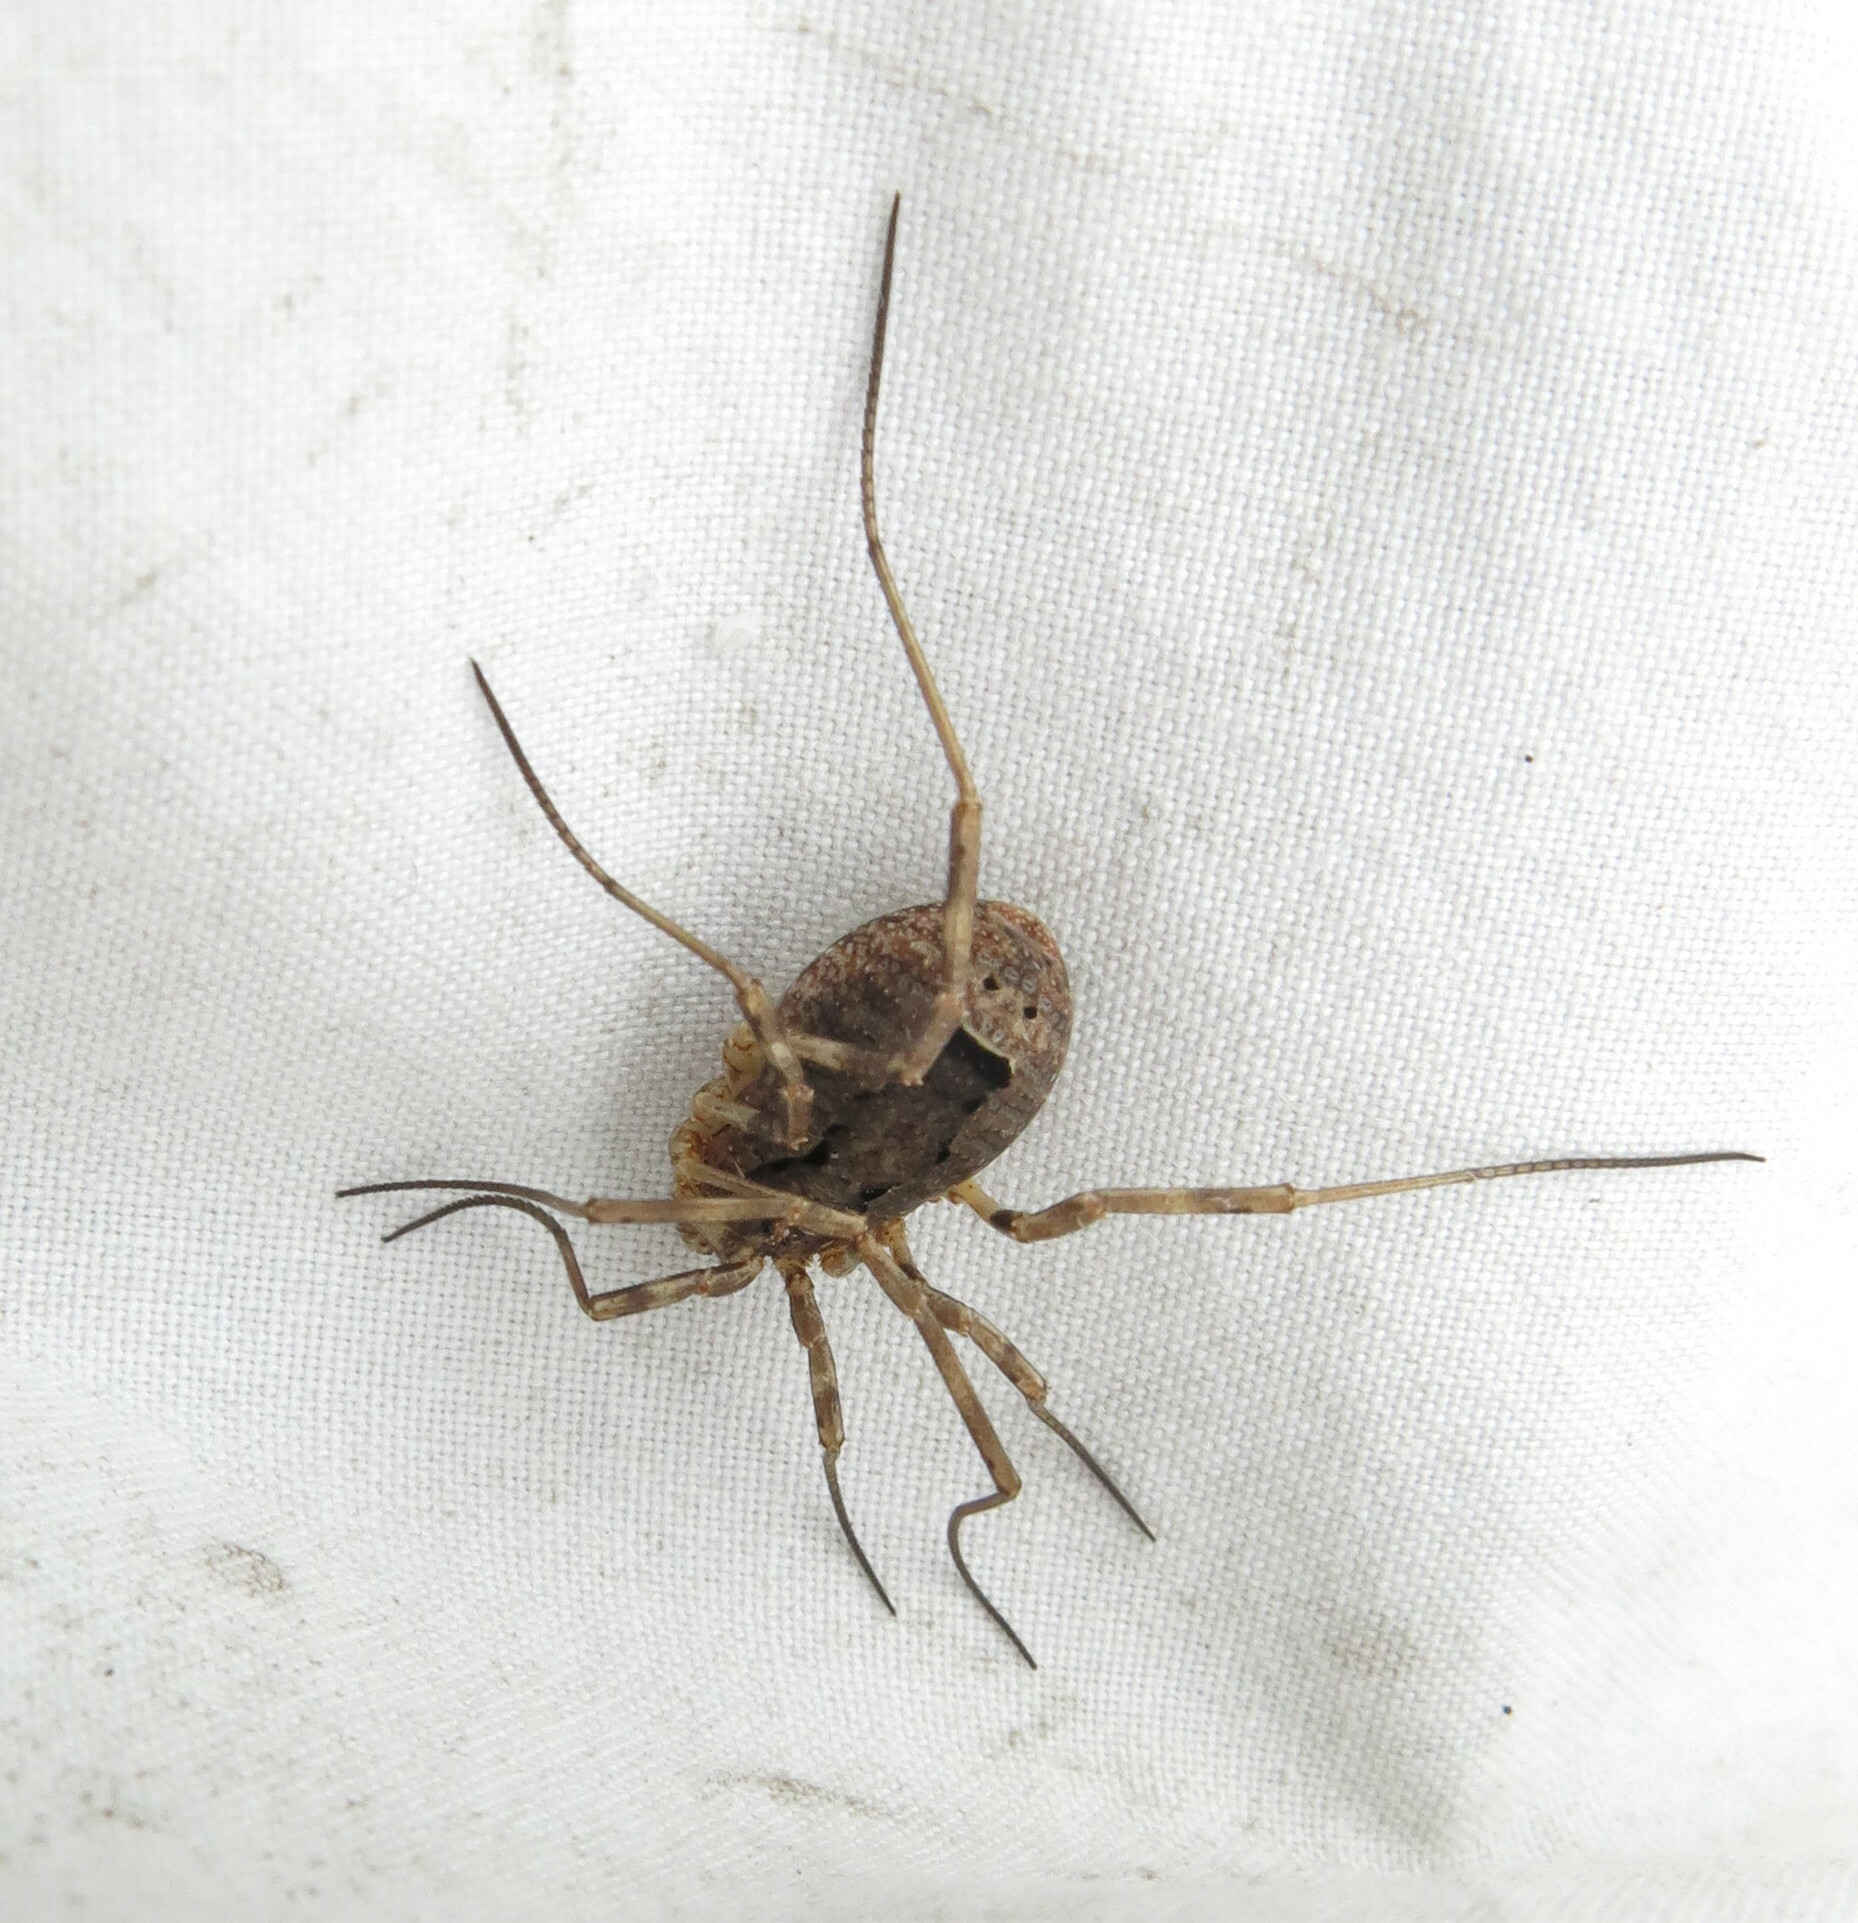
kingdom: Animalia
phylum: Arthropoda
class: Arachnida
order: Opiliones
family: Phalangiidae
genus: Odiellus
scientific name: Odiellus spinosus
